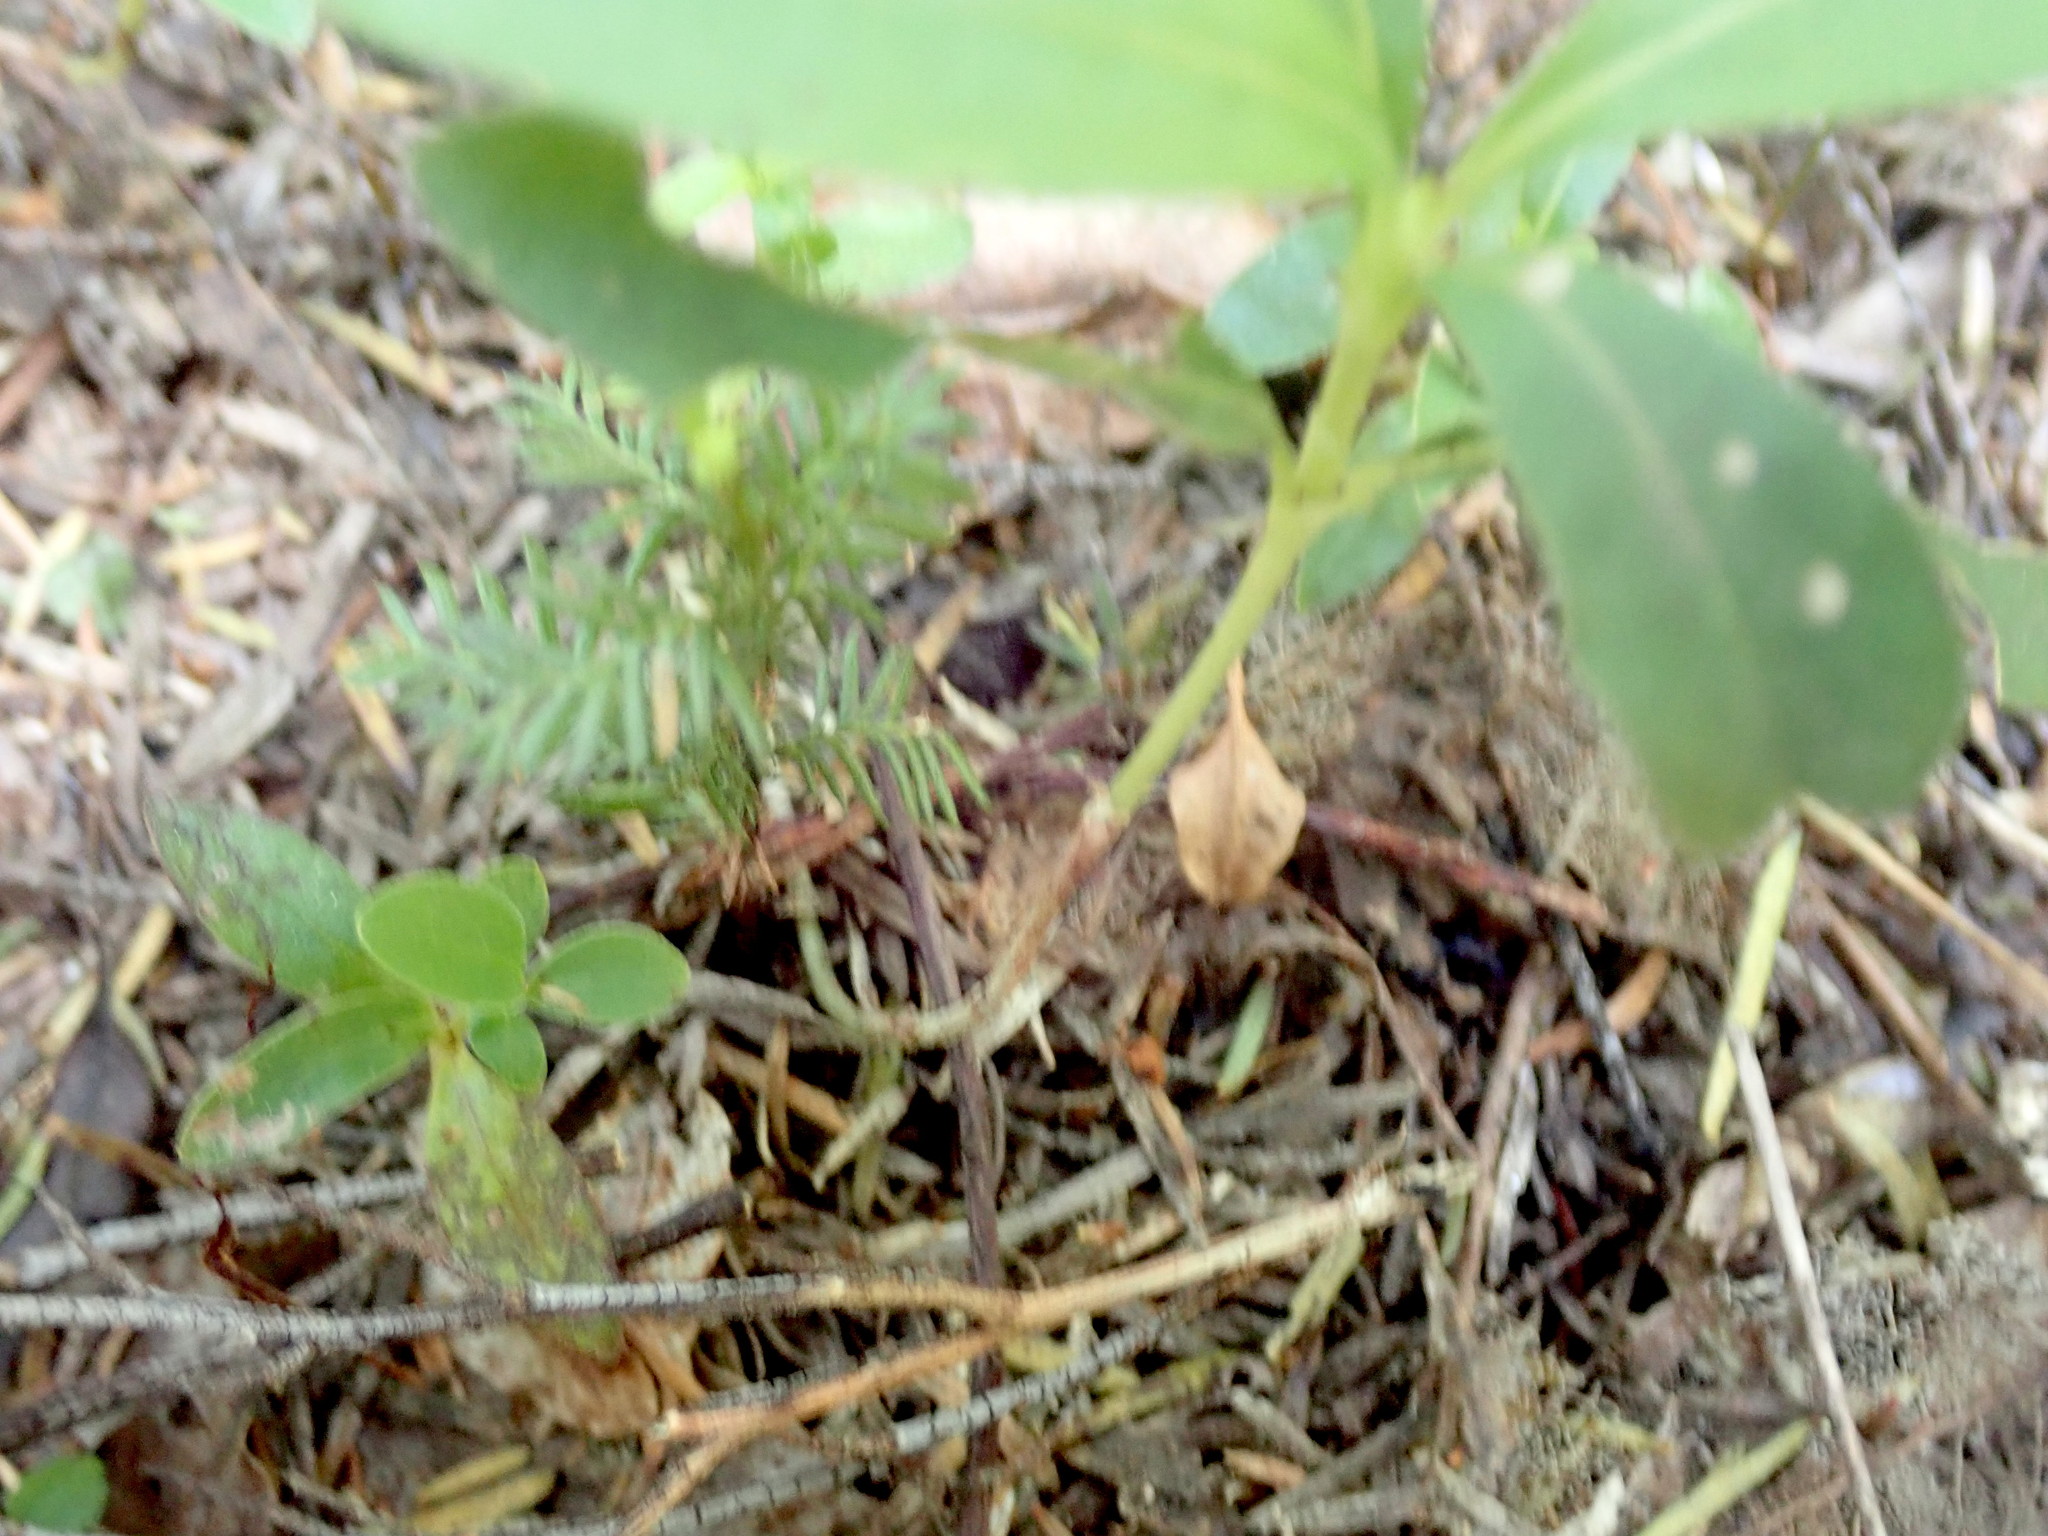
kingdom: Plantae
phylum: Tracheophyta
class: Pinopsida
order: Pinales
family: Podocarpaceae
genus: Dacrycarpus
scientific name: Dacrycarpus dacrydioides
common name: White pine
